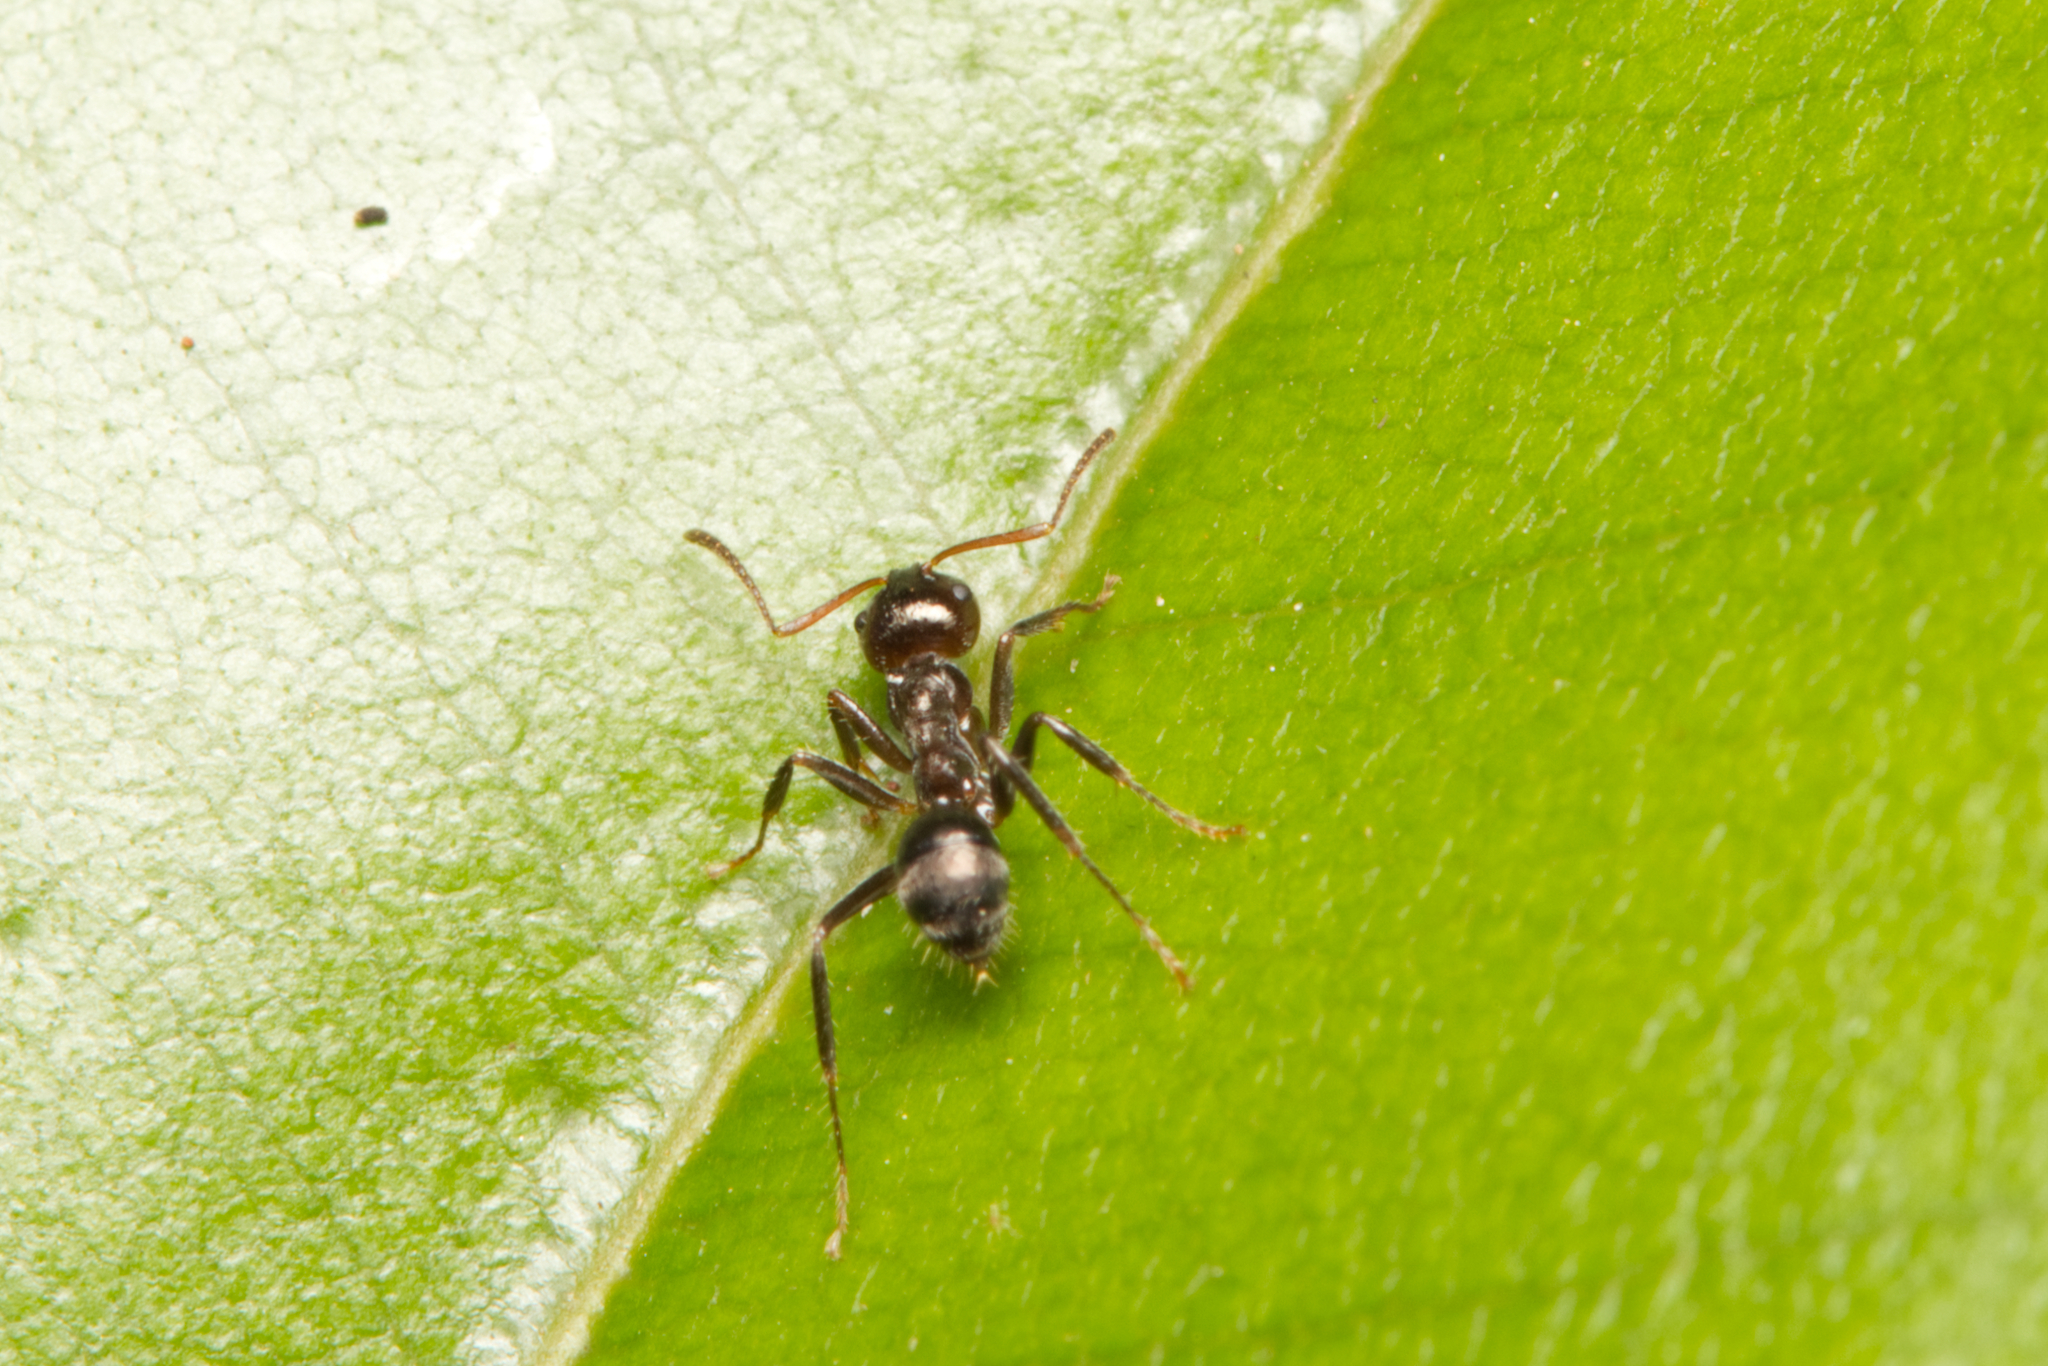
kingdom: Animalia
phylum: Arthropoda
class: Insecta
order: Hymenoptera
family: Formicidae
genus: Notoncus
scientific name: Notoncus capitatus
